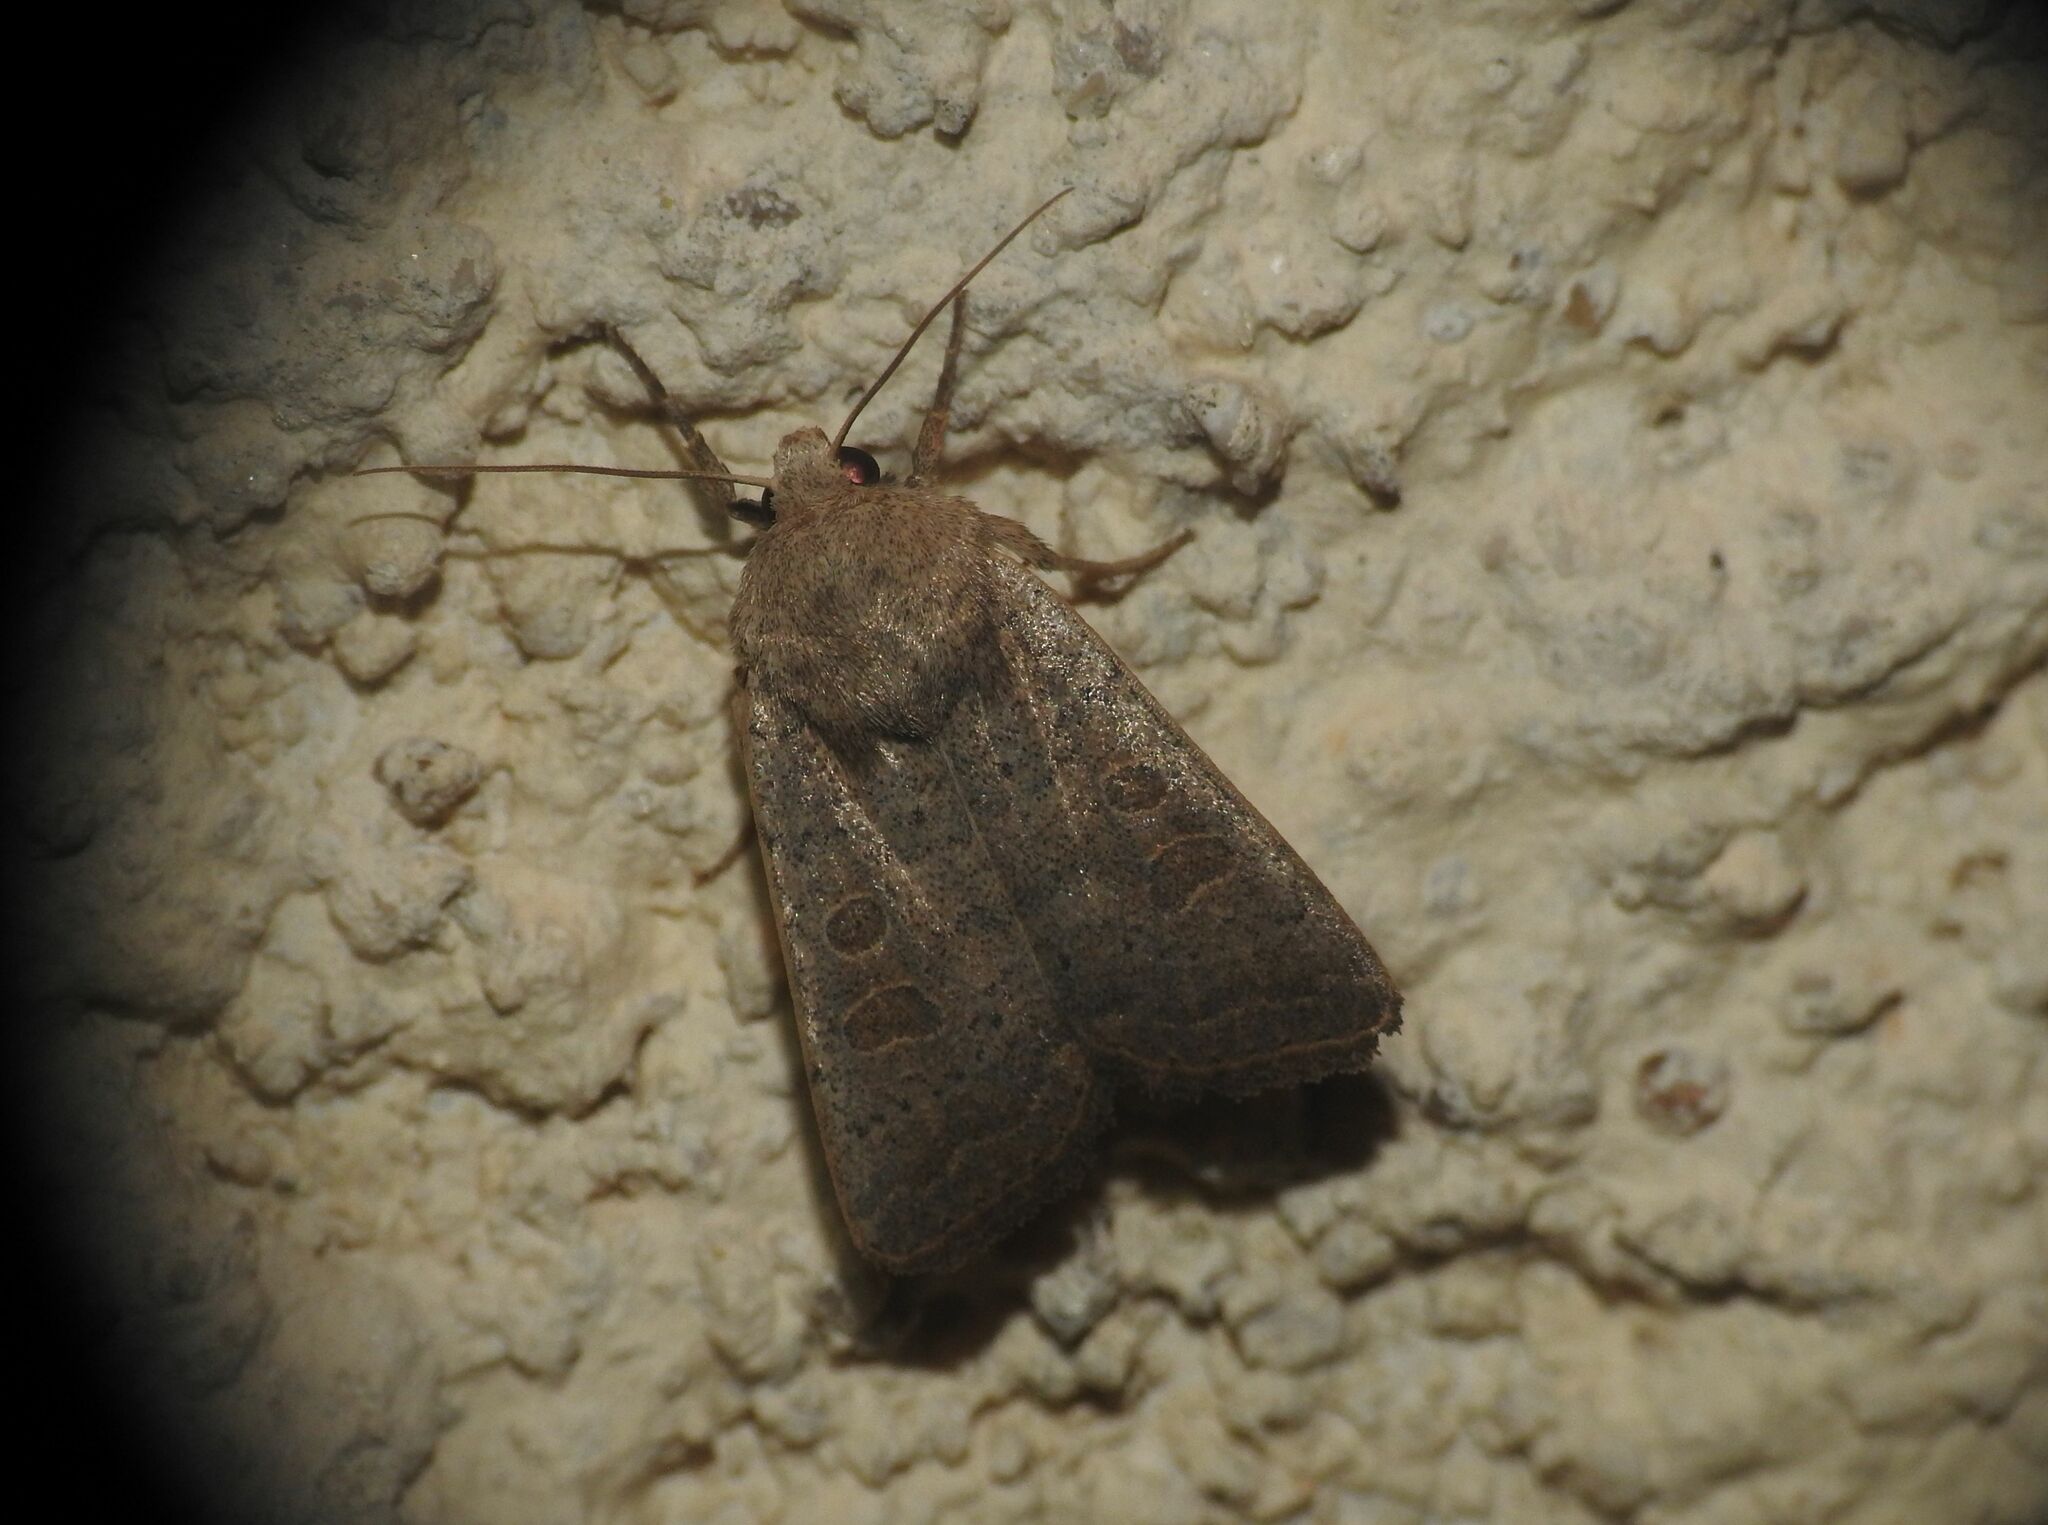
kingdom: Animalia
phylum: Arthropoda
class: Insecta
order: Lepidoptera
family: Noctuidae
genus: Hoplodrina
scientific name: Hoplodrina ambigua
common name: Vine's rustic
